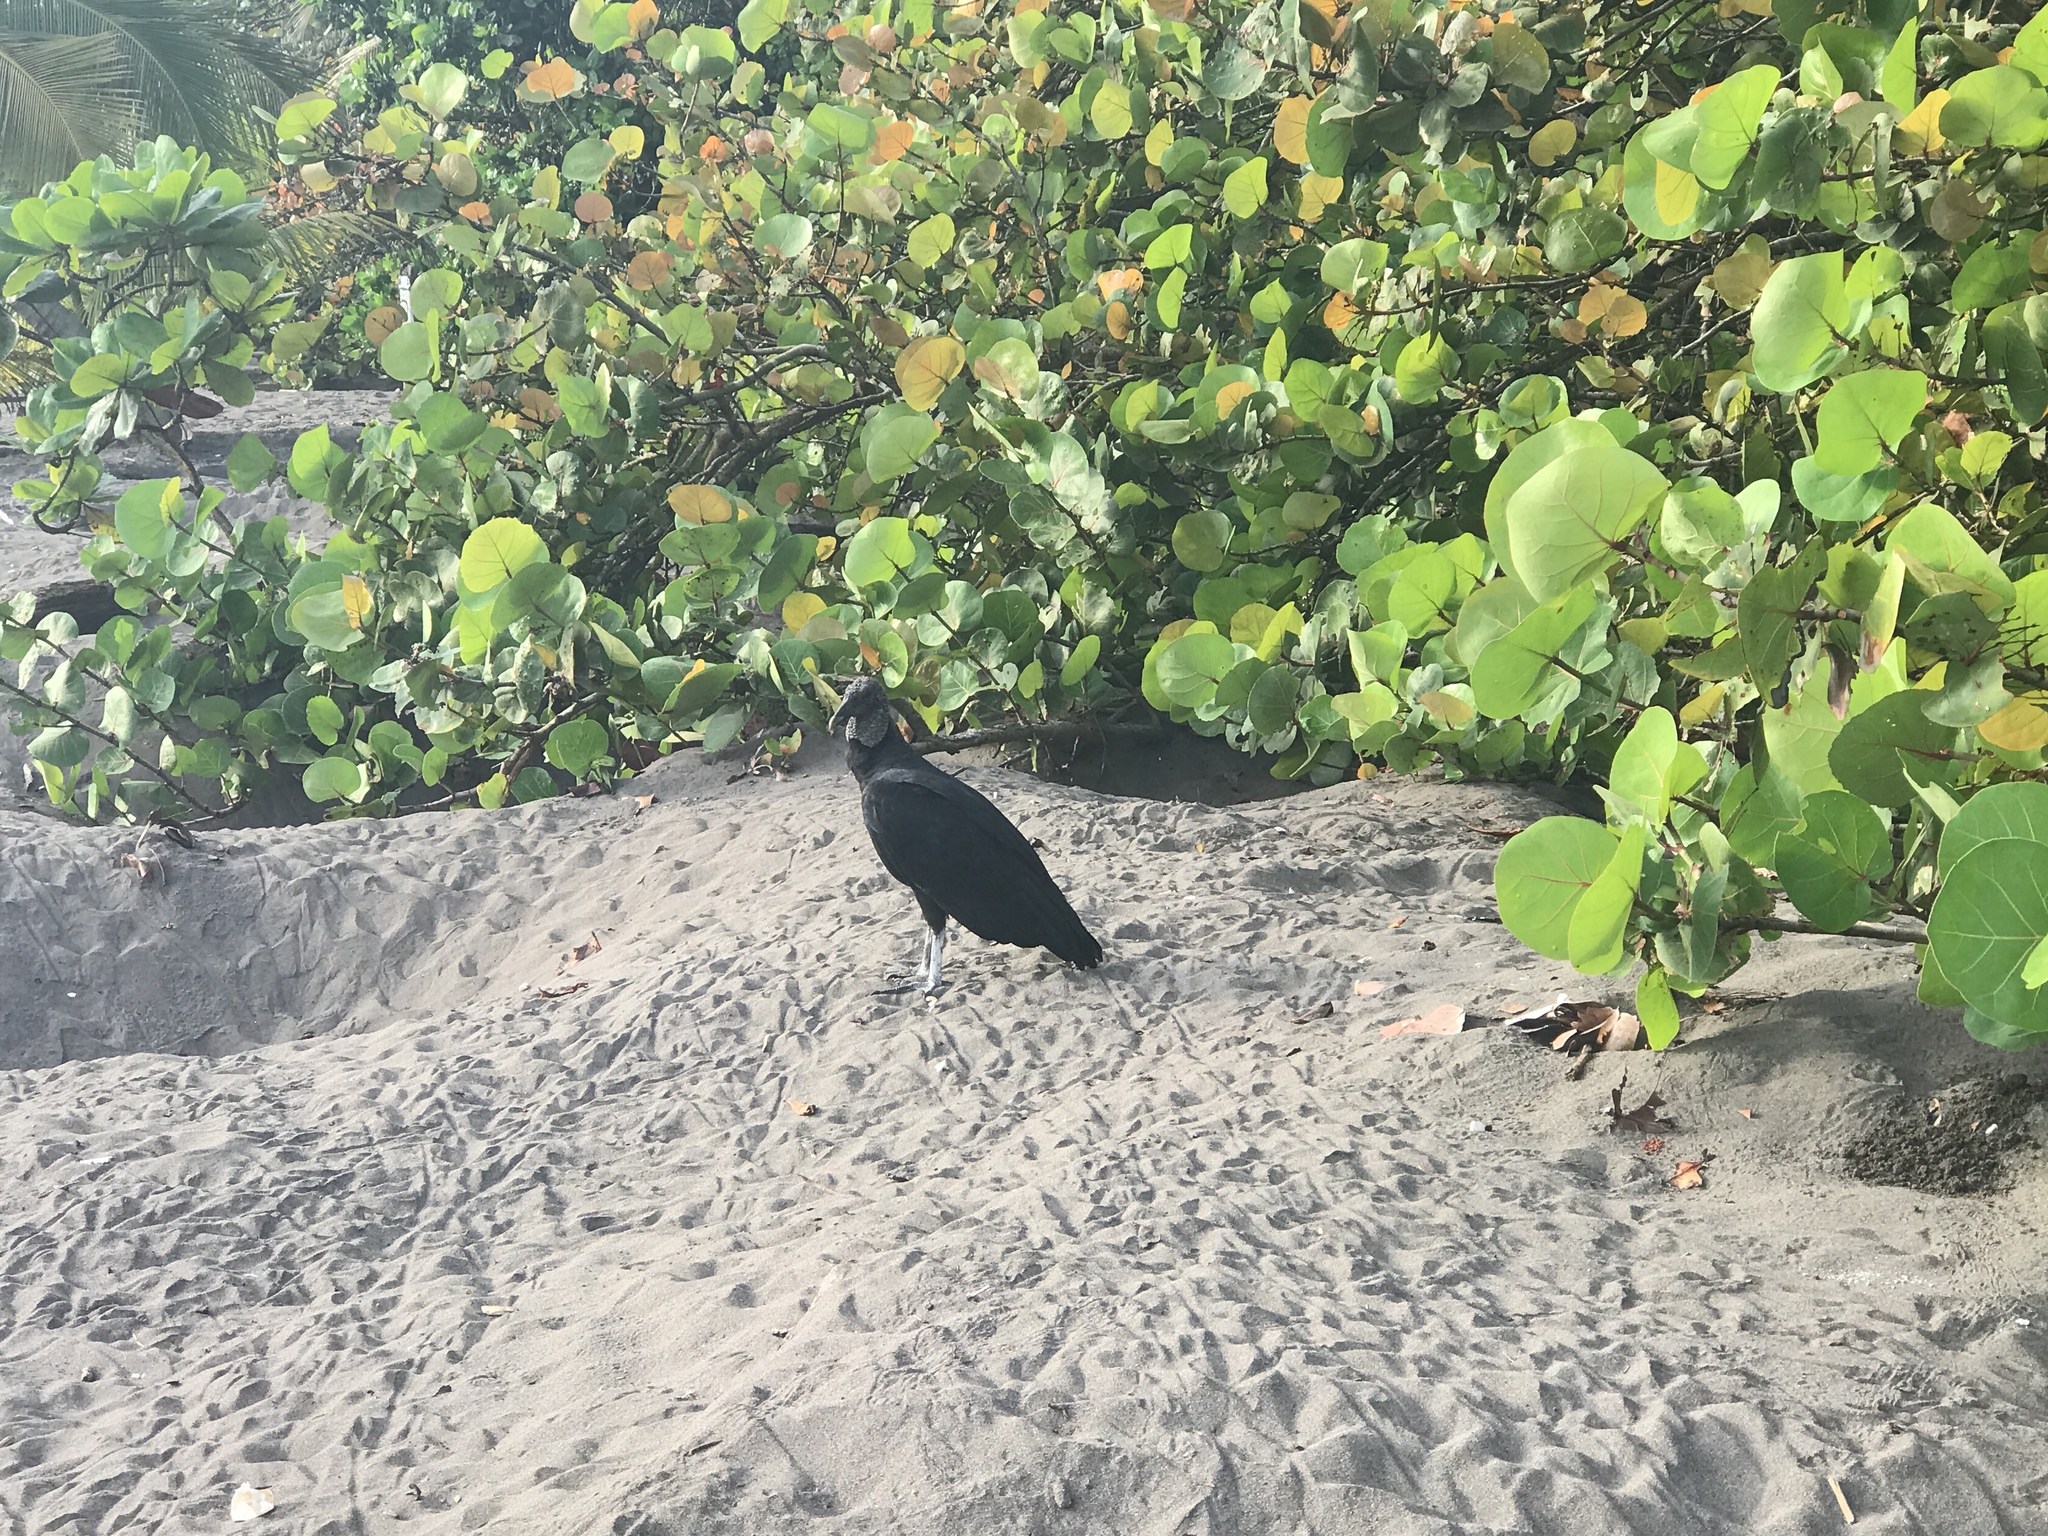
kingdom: Animalia
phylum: Chordata
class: Aves
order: Accipitriformes
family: Cathartidae
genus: Coragyps
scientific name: Coragyps atratus
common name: Black vulture
